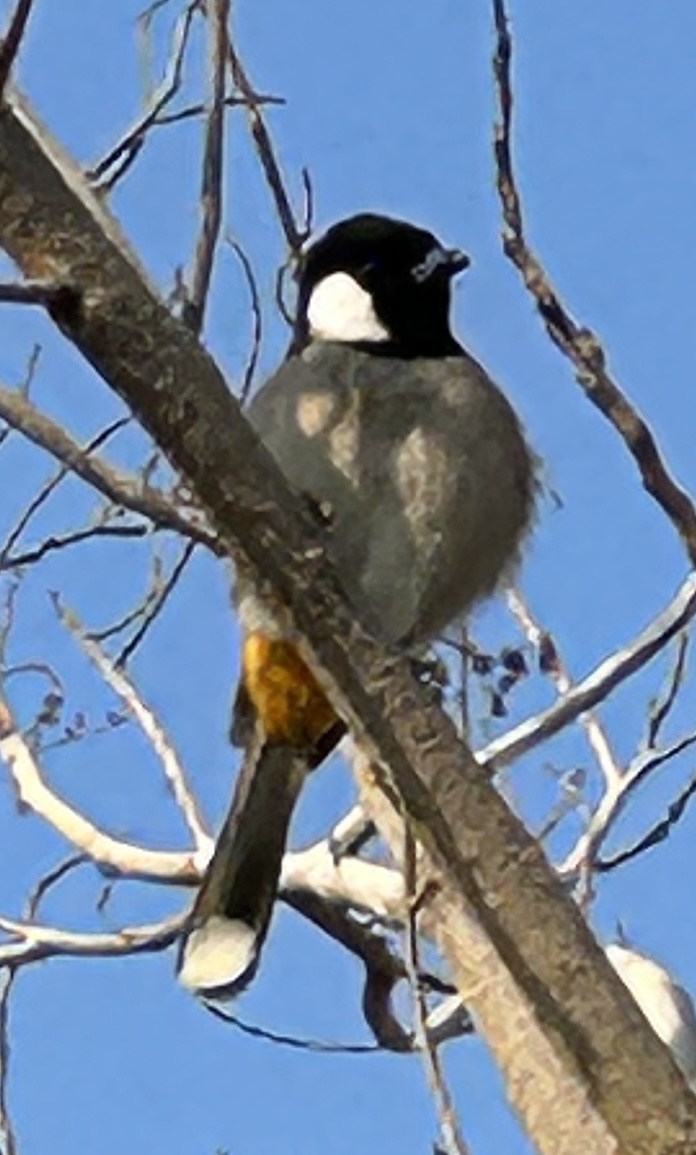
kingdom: Animalia
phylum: Chordata
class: Aves
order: Passeriformes
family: Pycnonotidae
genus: Pycnonotus
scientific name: Pycnonotus leucotis
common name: White-eared bulbul
